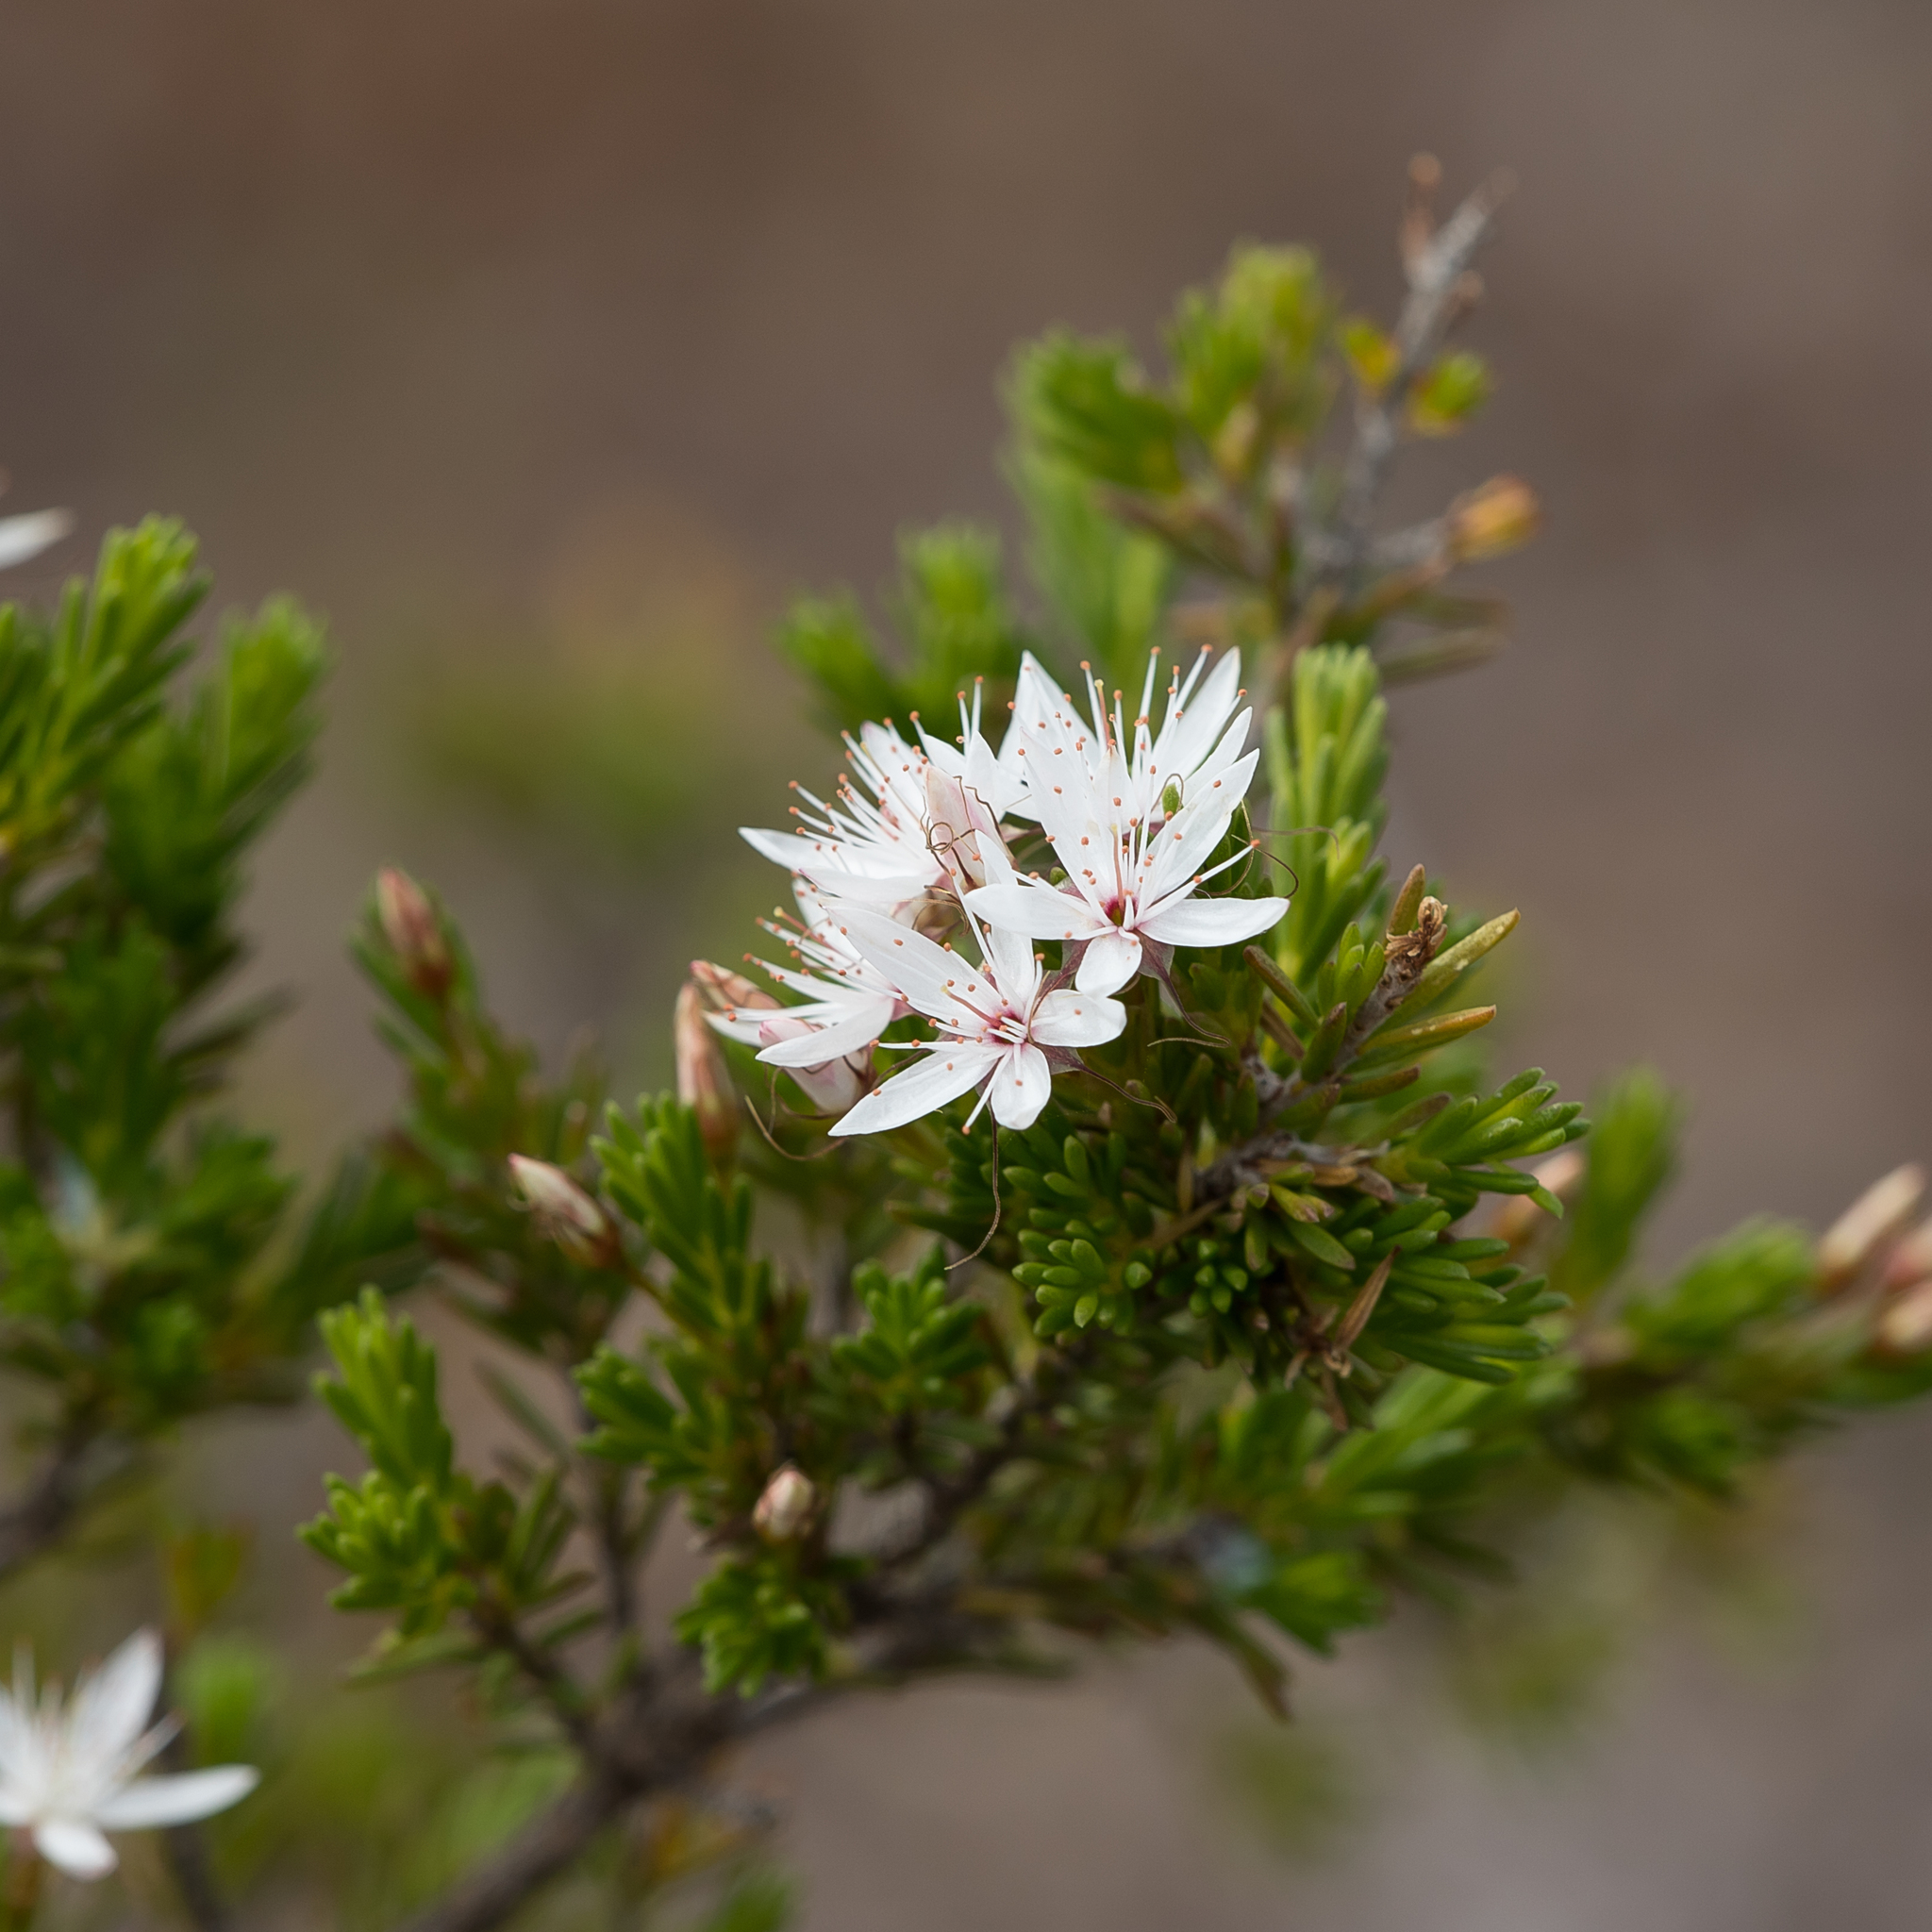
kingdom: Plantae
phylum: Tracheophyta
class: Magnoliopsida
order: Myrtales
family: Myrtaceae
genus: Calytrix
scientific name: Calytrix tetragona
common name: Common fringe myrtle
